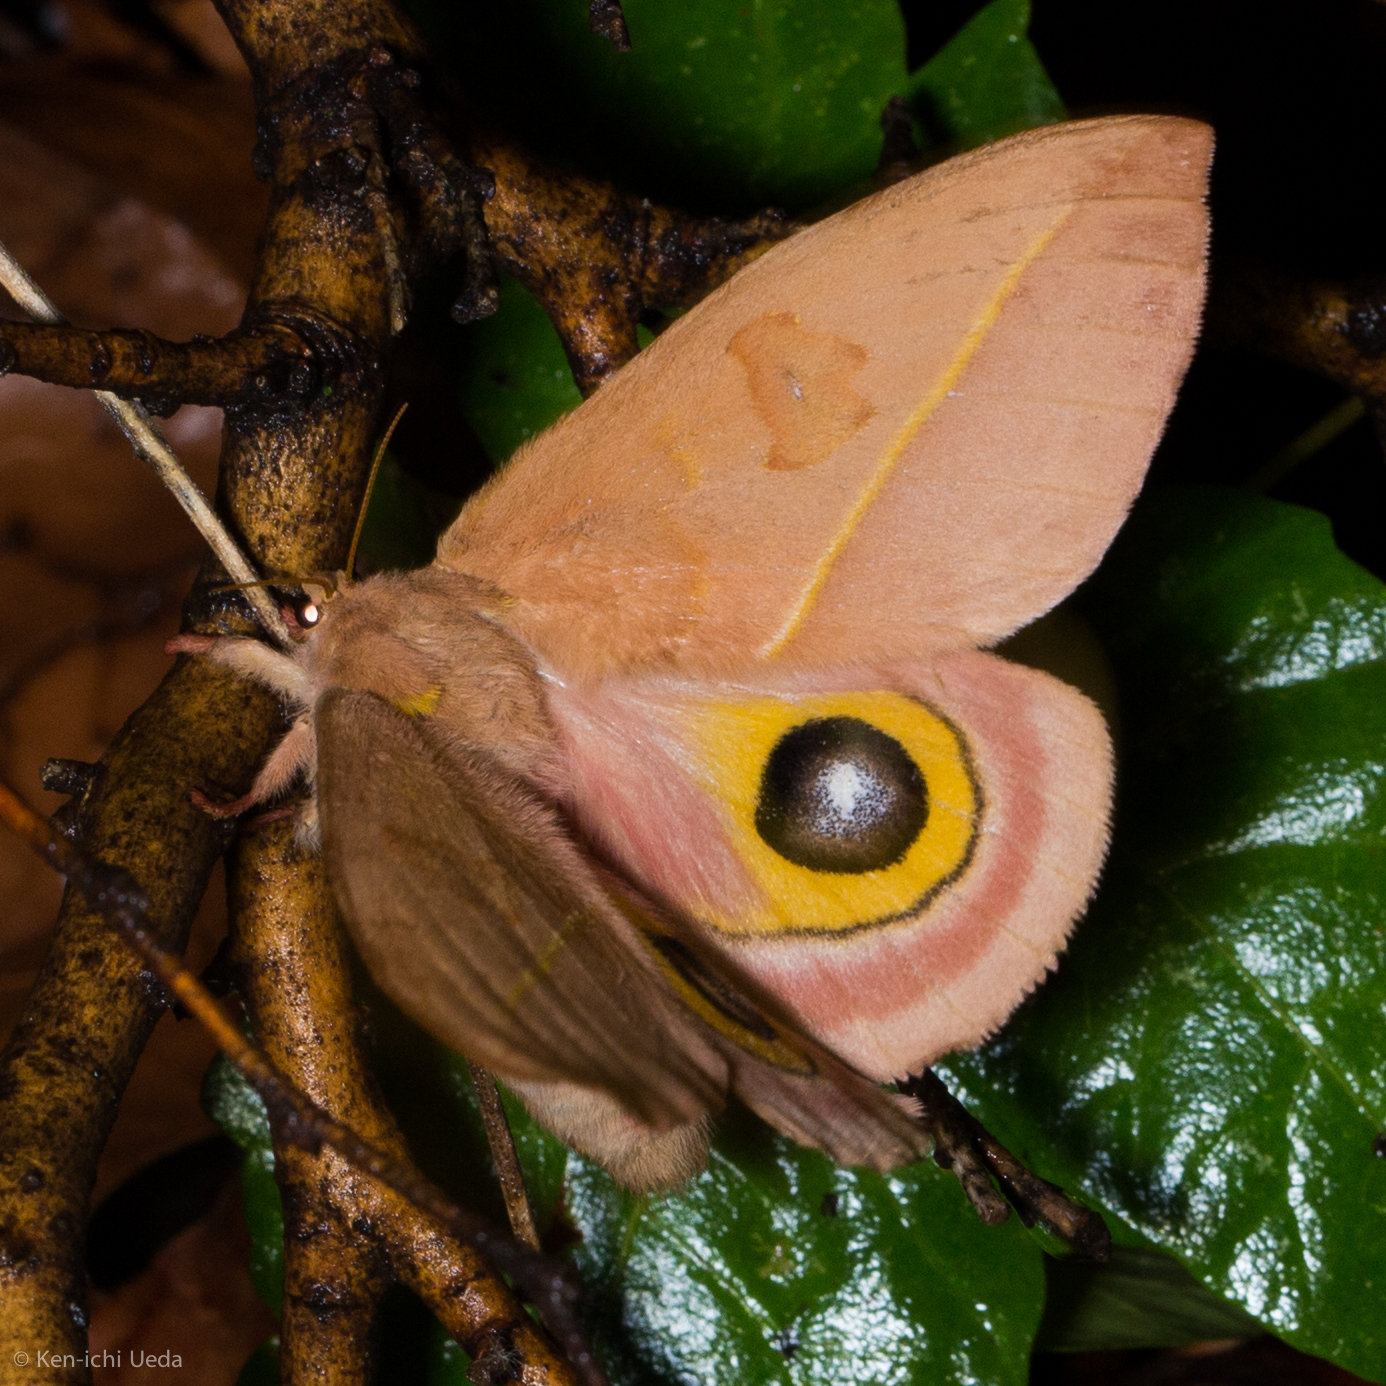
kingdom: Animalia
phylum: Arthropoda
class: Insecta
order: Lepidoptera
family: Saturniidae
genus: Automeris
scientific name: Automeris cecrops
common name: Cecrops eyed silkmoth
